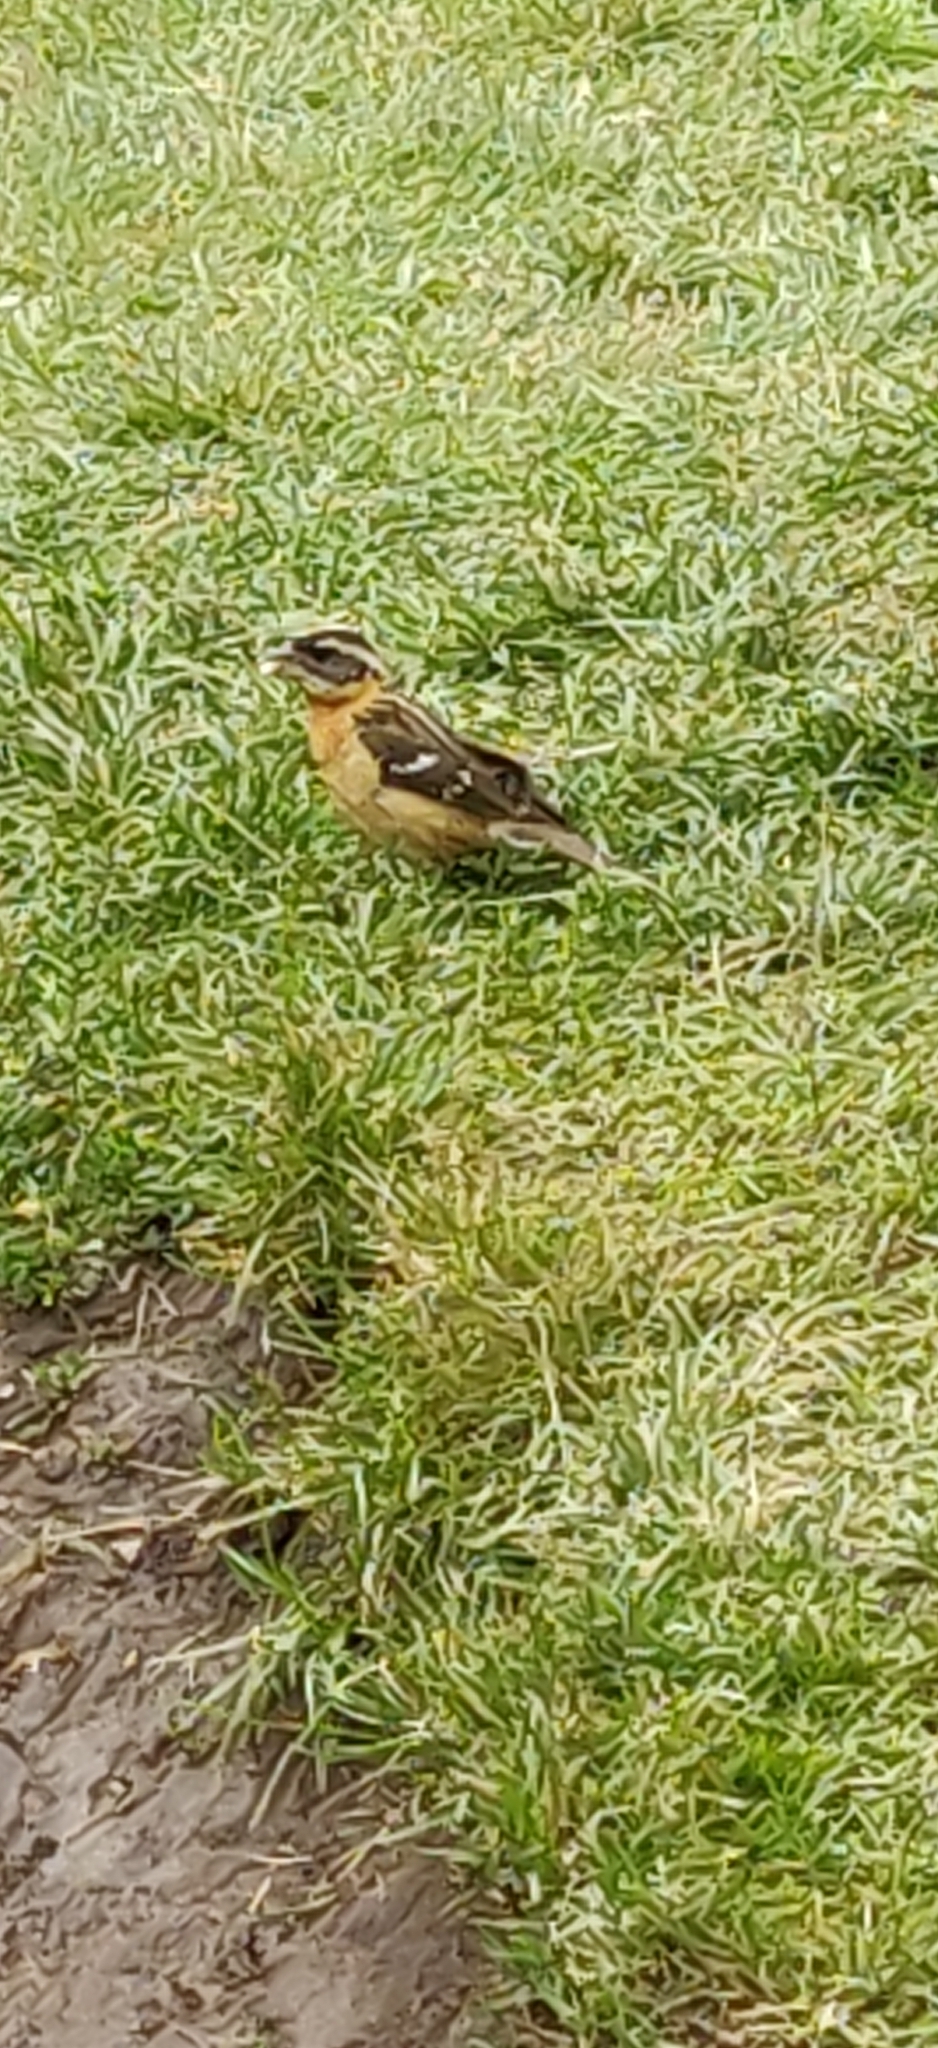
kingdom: Animalia
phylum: Chordata
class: Aves
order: Passeriformes
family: Cardinalidae
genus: Pheucticus
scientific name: Pheucticus melanocephalus
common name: Black-headed grosbeak
